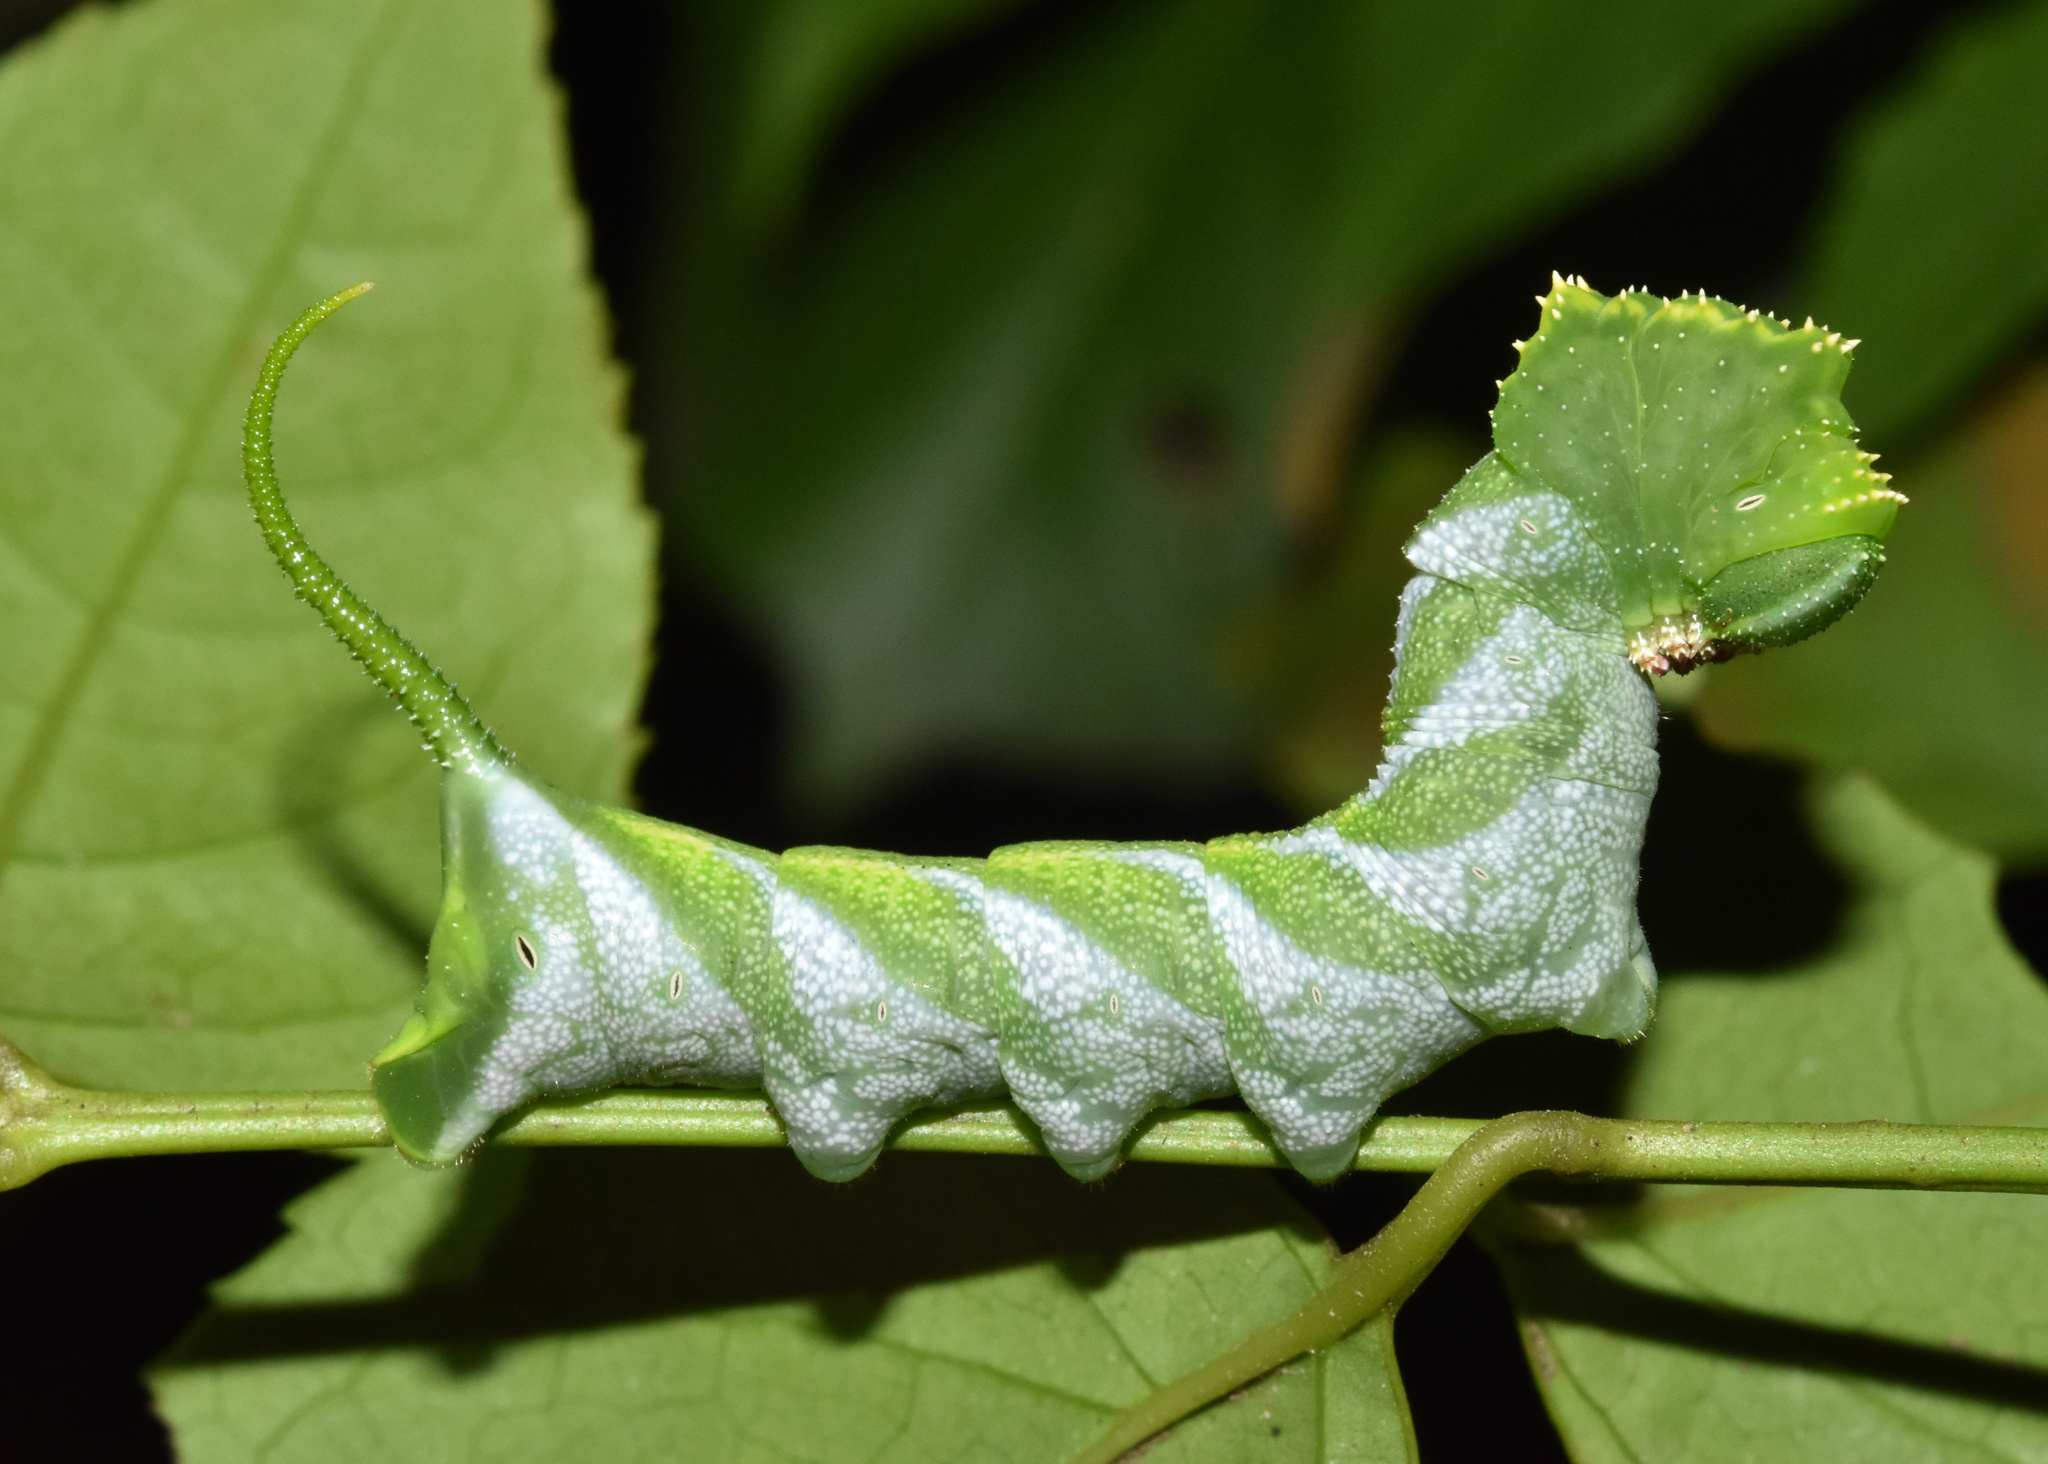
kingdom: Animalia
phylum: Arthropoda
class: Insecta
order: Lepidoptera
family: Sphingidae
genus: Coelonia
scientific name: Coelonia fulvinotata
